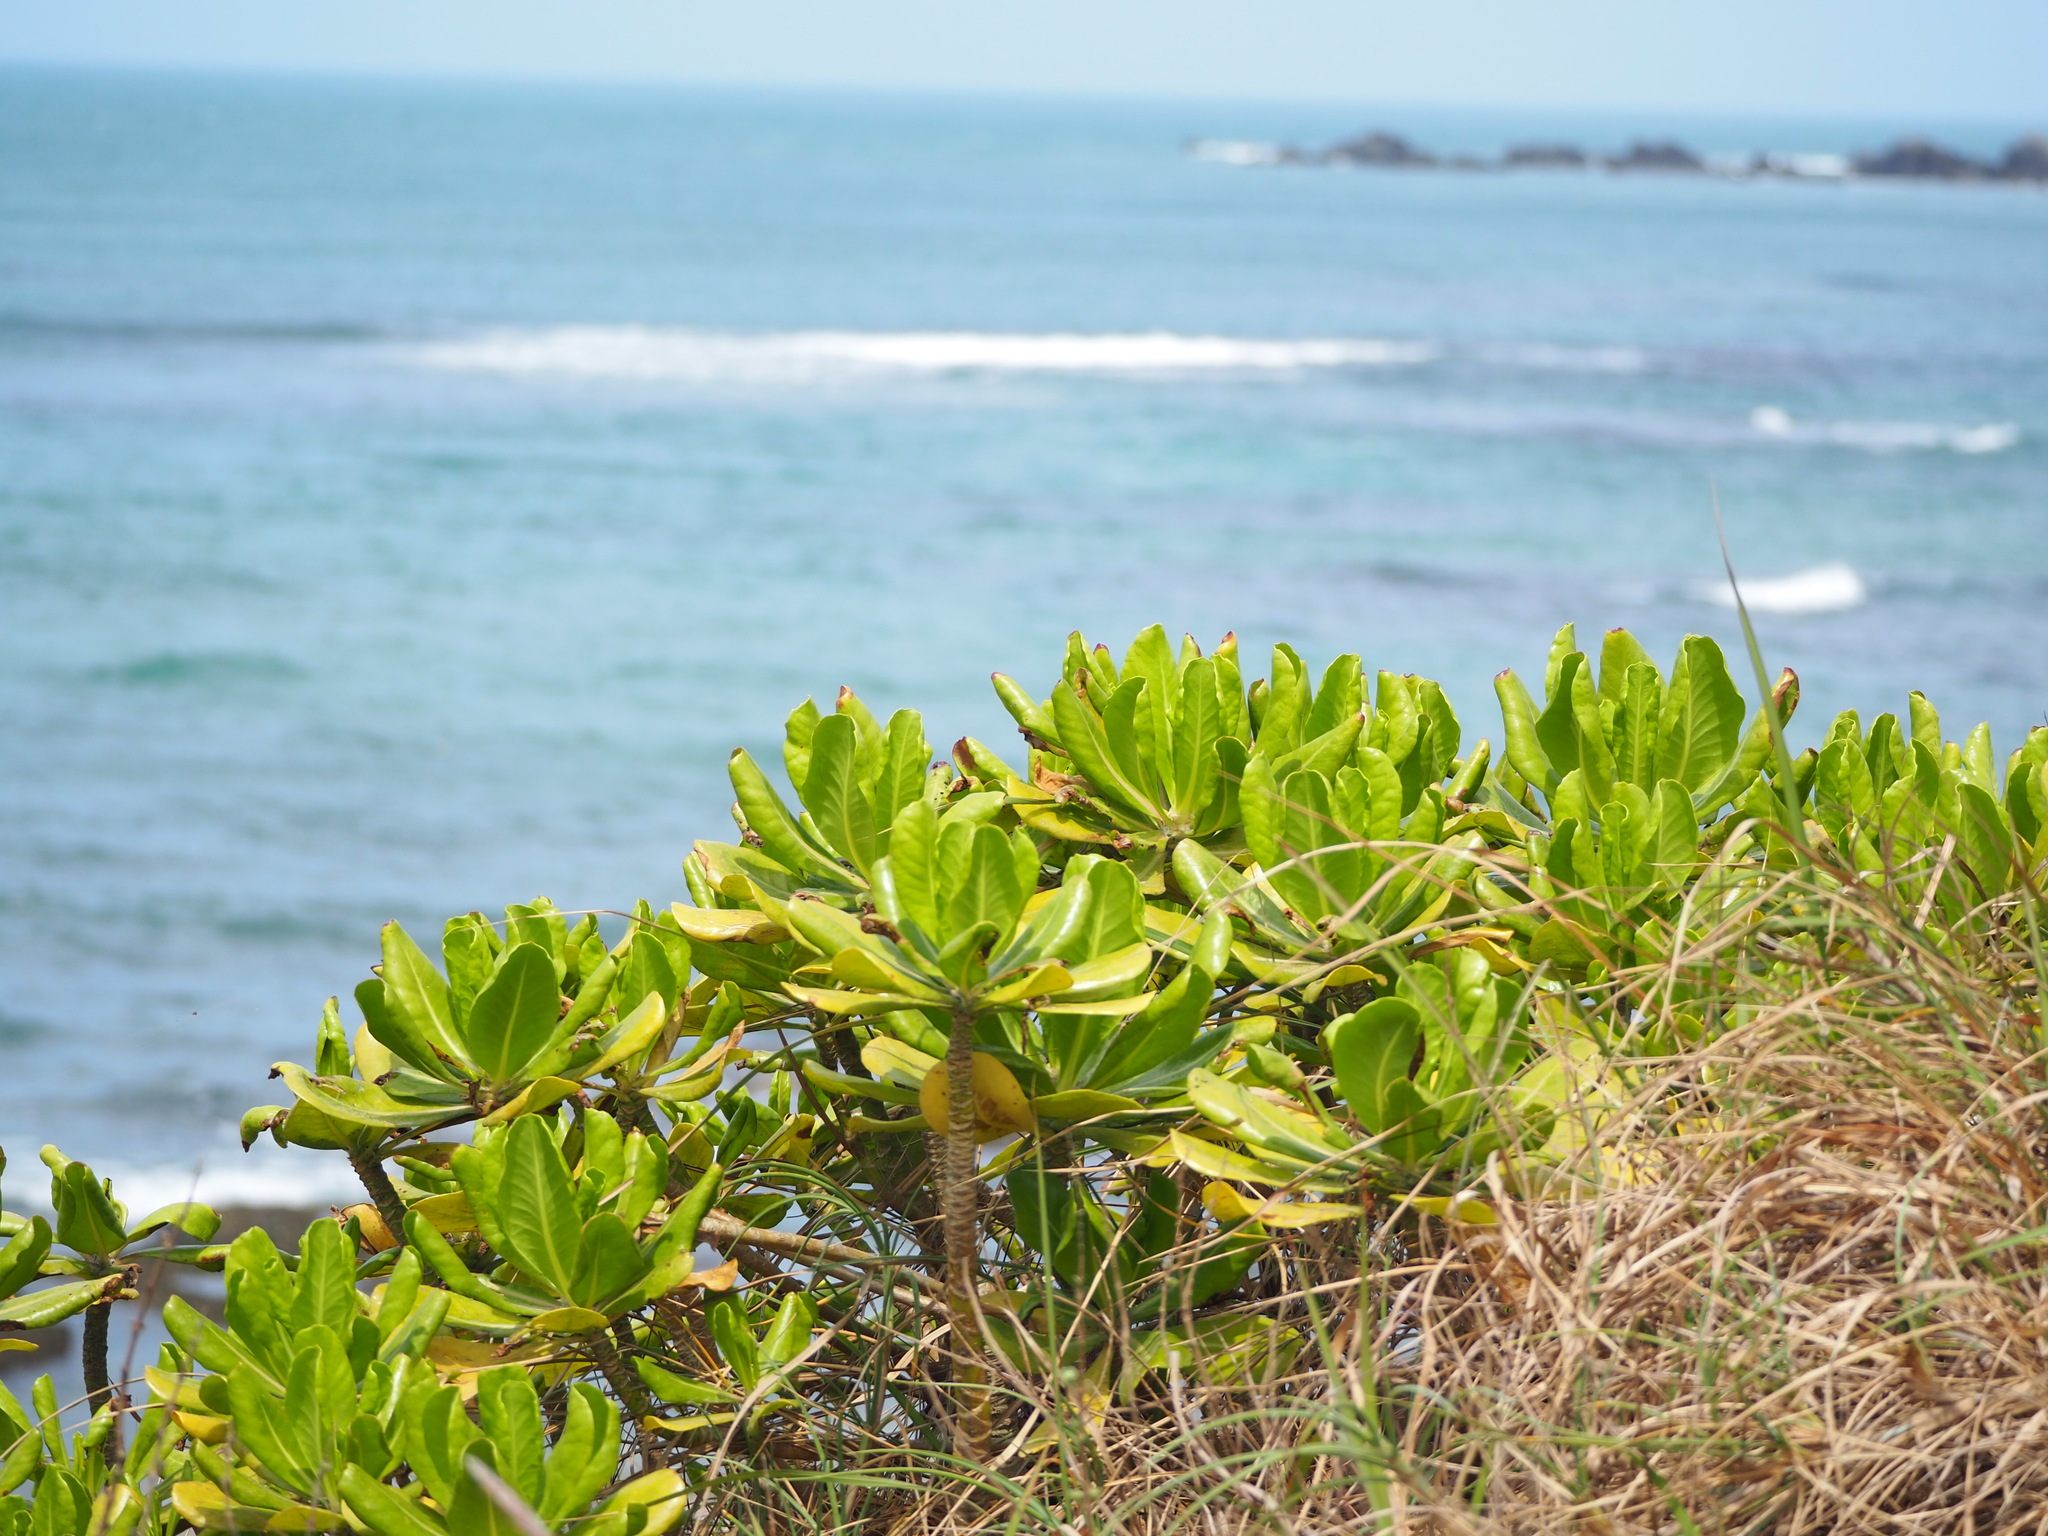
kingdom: Plantae
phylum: Tracheophyta
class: Magnoliopsida
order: Asterales
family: Goodeniaceae
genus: Scaevola
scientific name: Scaevola taccada
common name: Sea lettucetree
